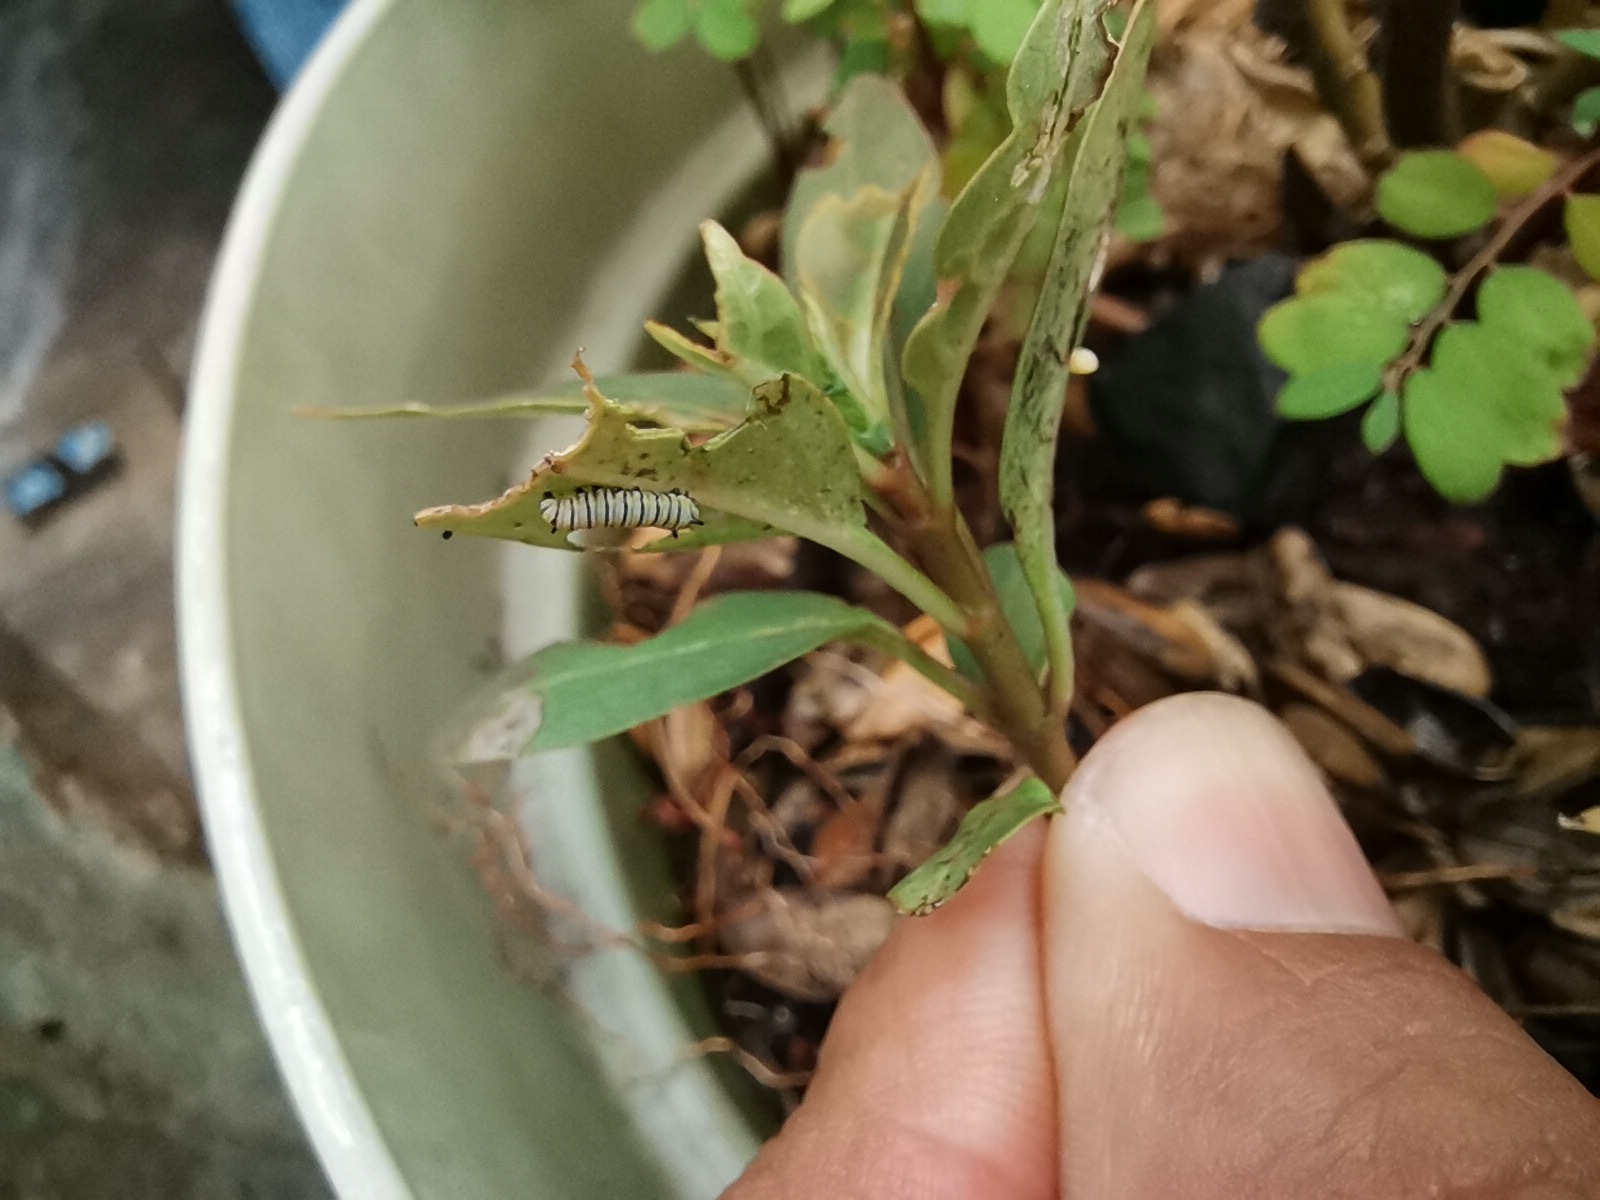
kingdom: Animalia
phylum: Arthropoda
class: Insecta
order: Lepidoptera
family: Nymphalidae
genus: Danaus
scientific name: Danaus plexippus
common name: Monarch
